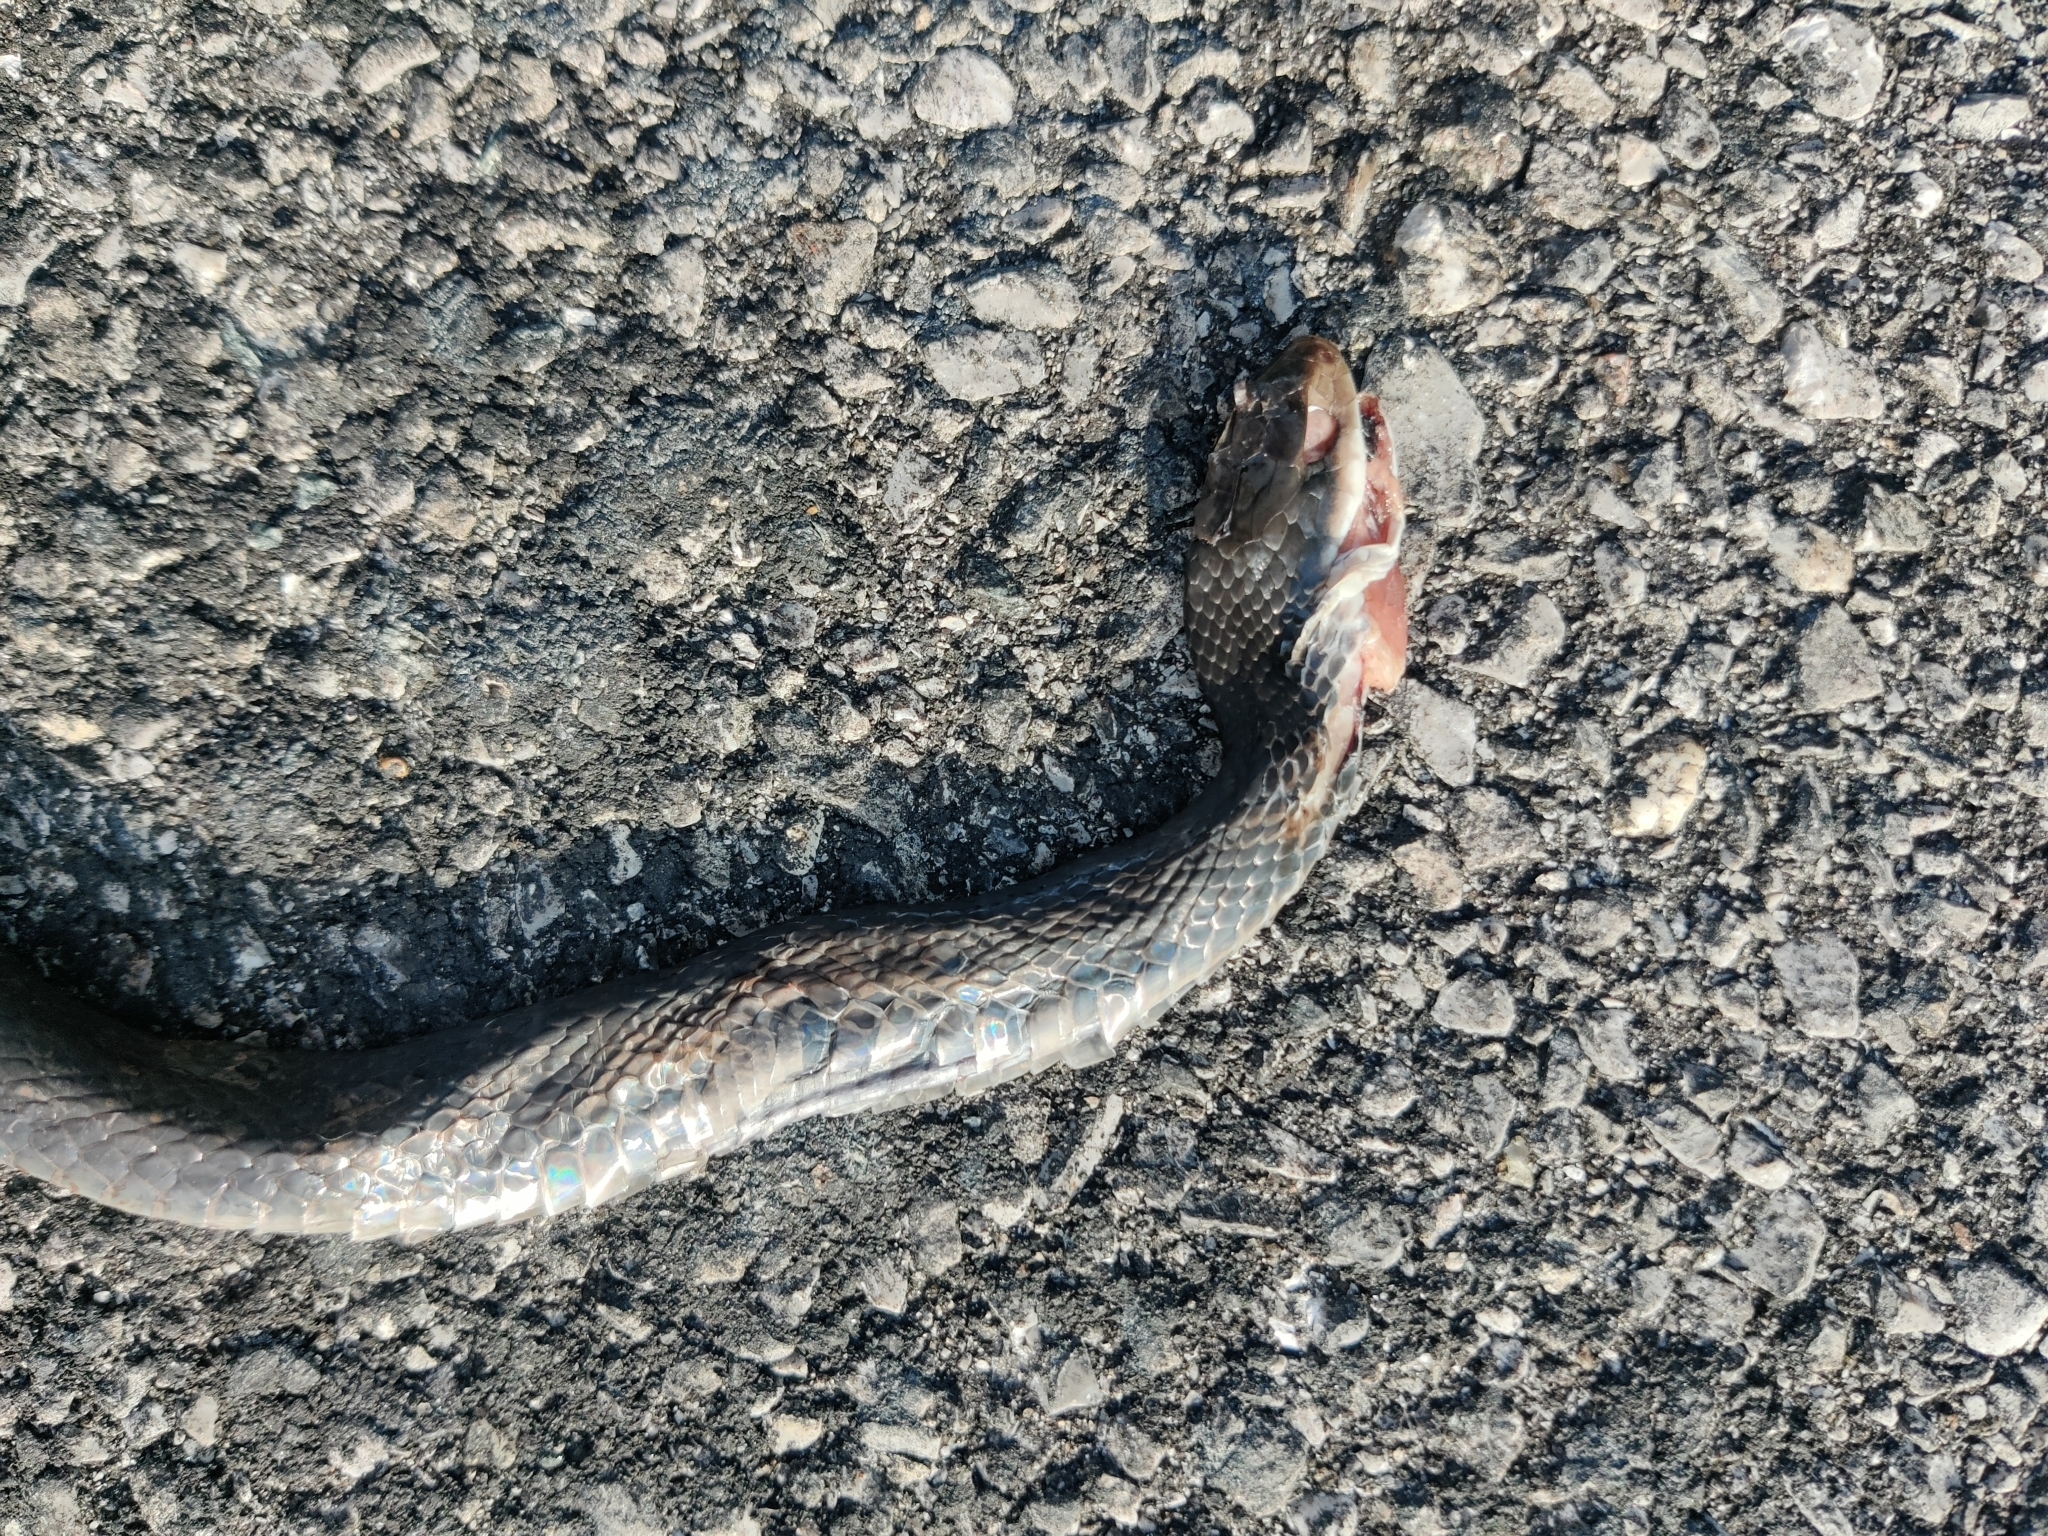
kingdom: Animalia
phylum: Chordata
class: Squamata
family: Colubridae
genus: Coluber
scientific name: Coluber constrictor
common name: Eastern racer
